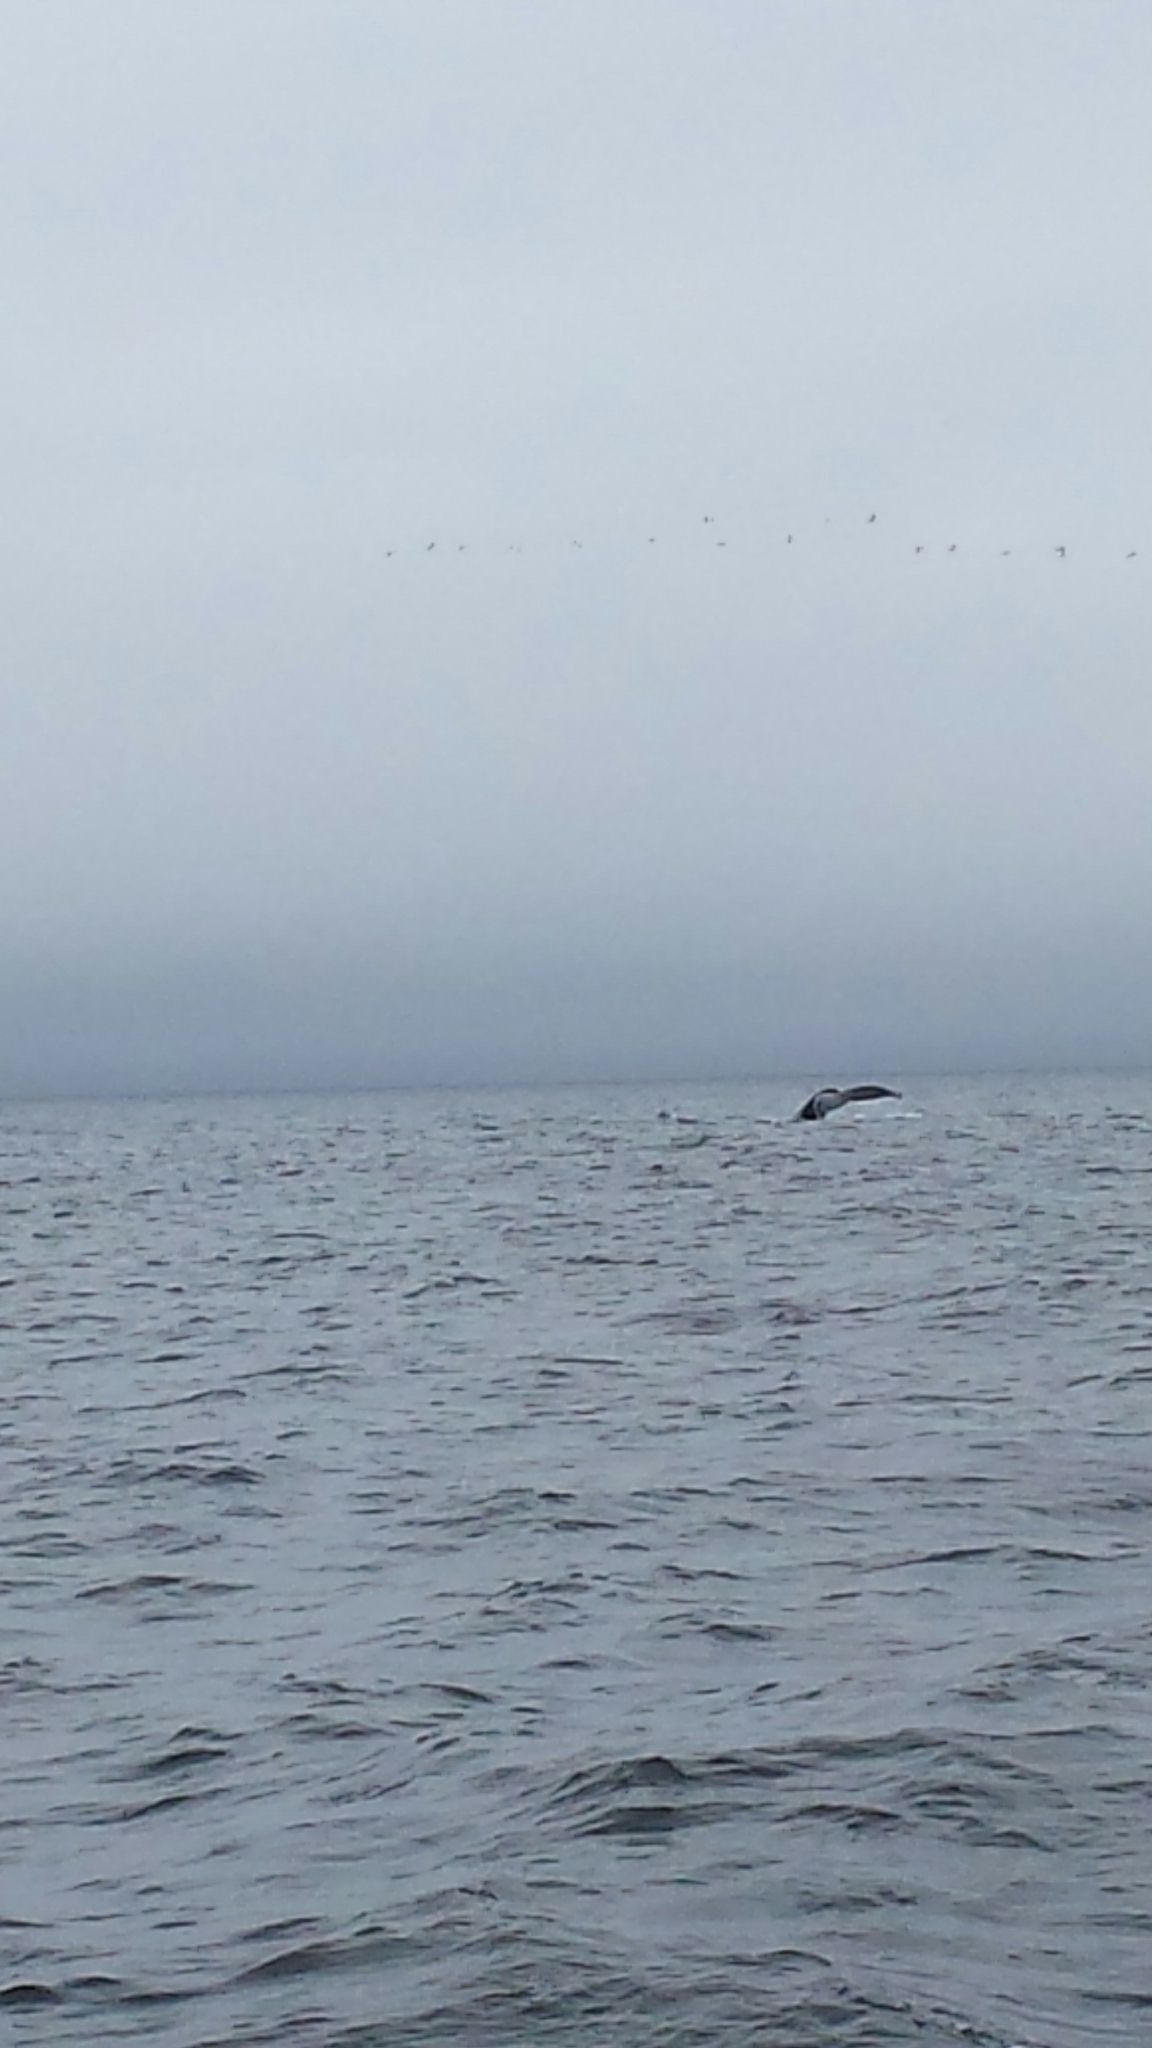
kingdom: Animalia
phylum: Chordata
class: Mammalia
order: Cetacea
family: Balaenopteridae
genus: Megaptera
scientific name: Megaptera novaeangliae
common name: Humpback whale
